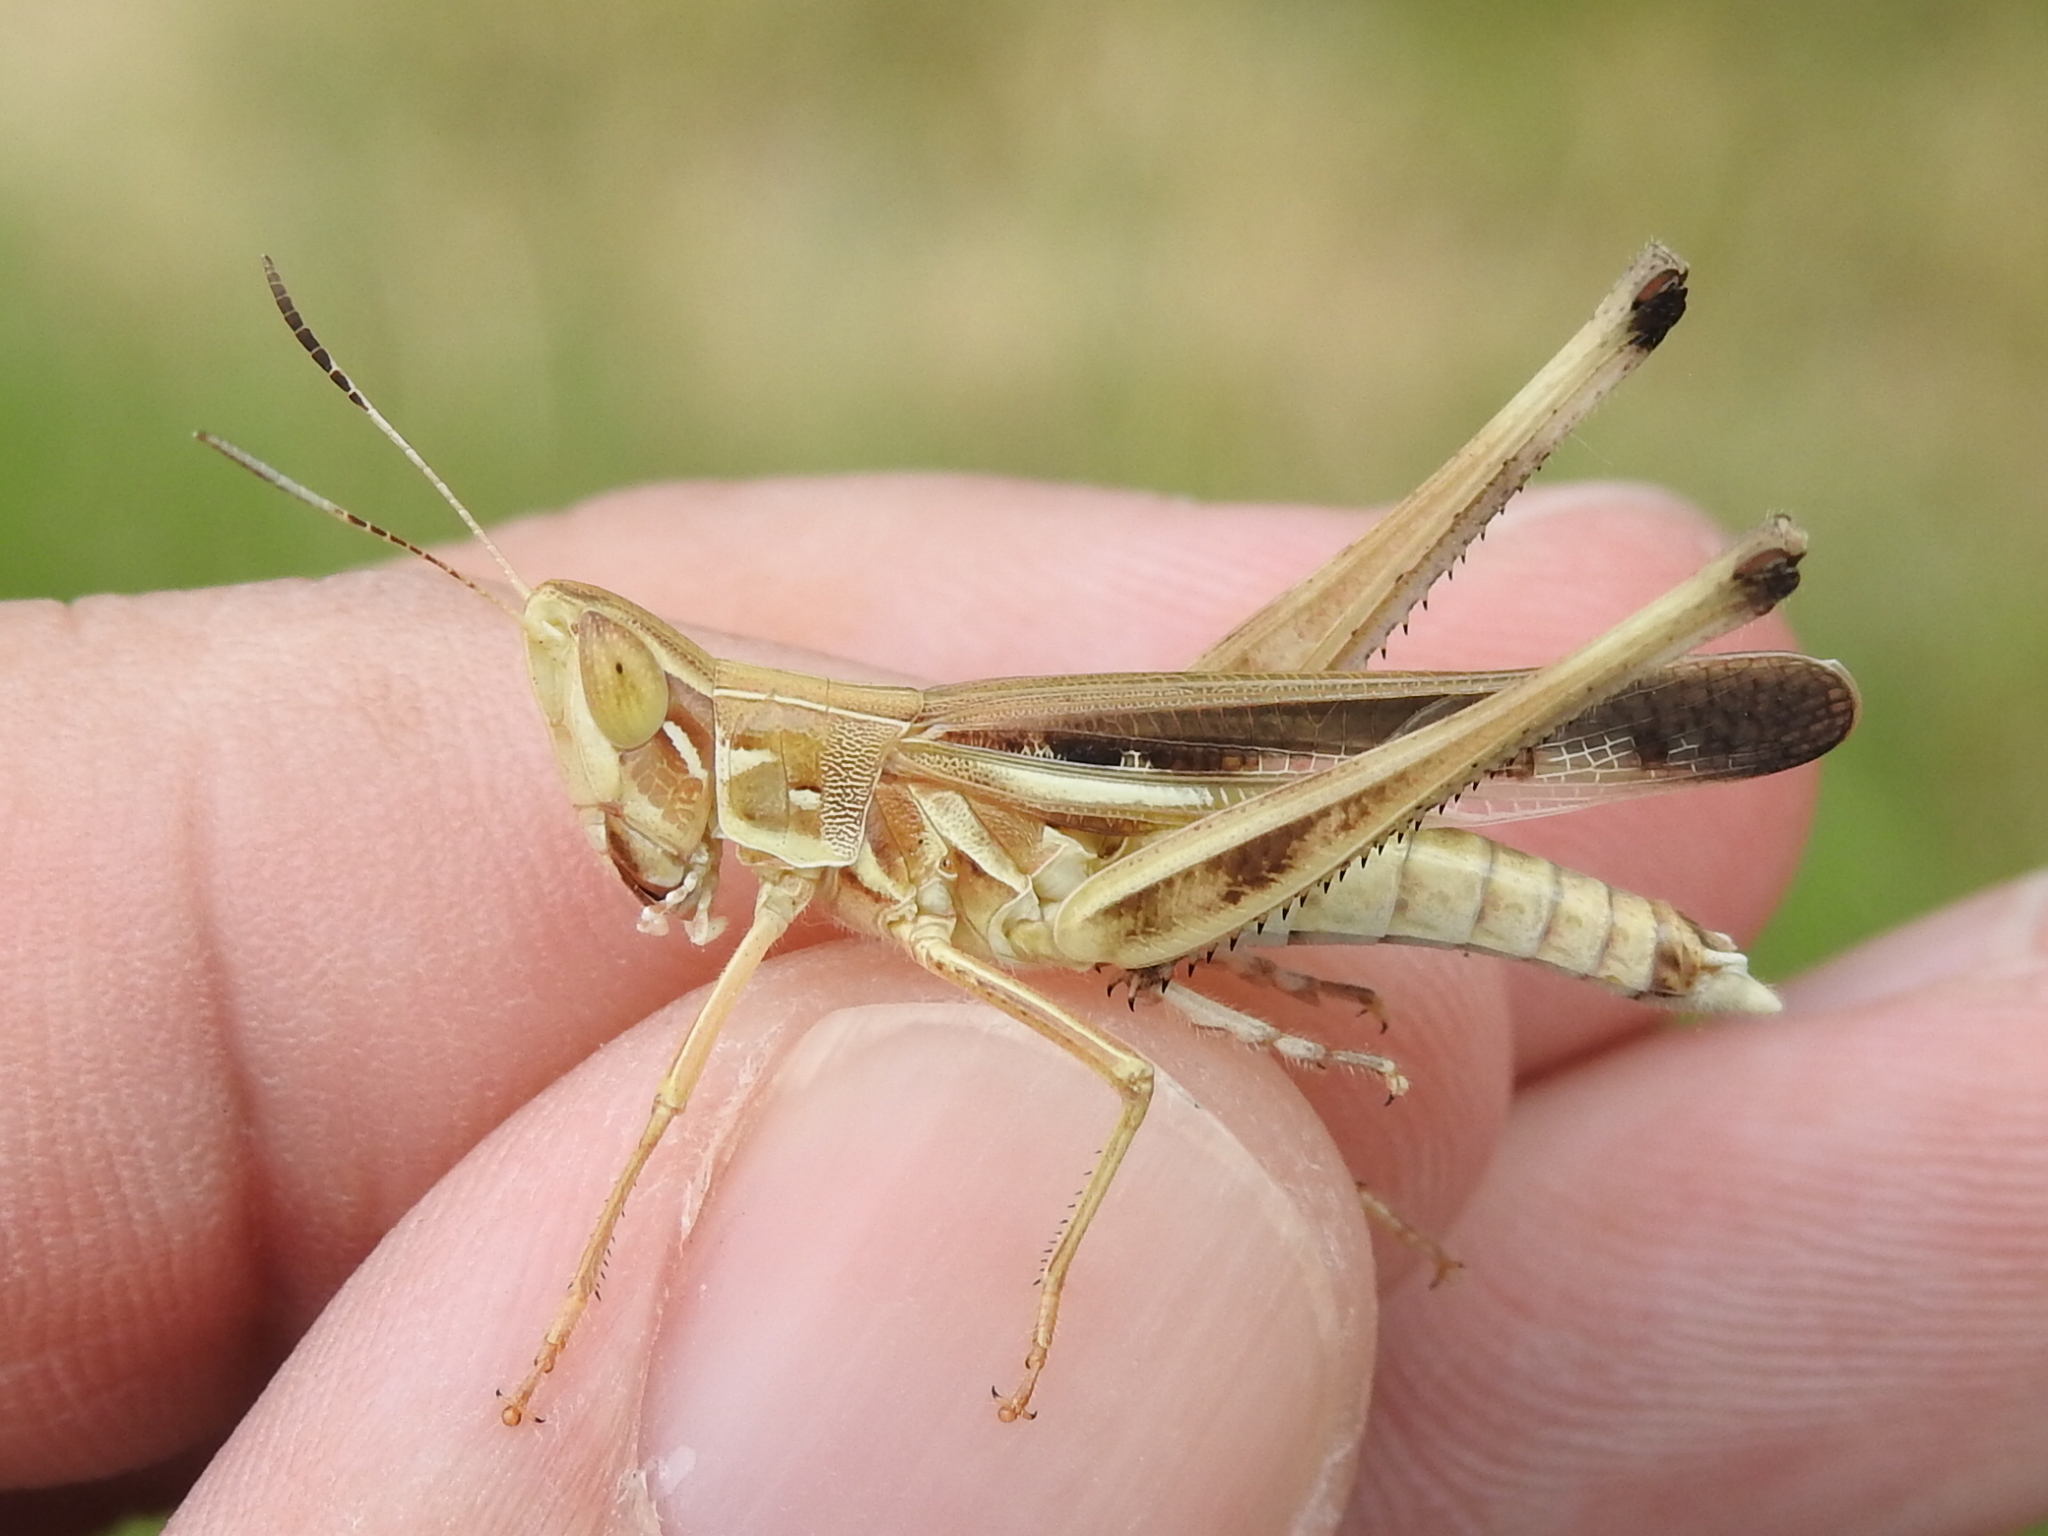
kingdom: Animalia
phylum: Arthropoda
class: Insecta
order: Orthoptera
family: Acrididae
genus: Syrbula
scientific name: Syrbula admirabilis
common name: Handsome grasshopper
